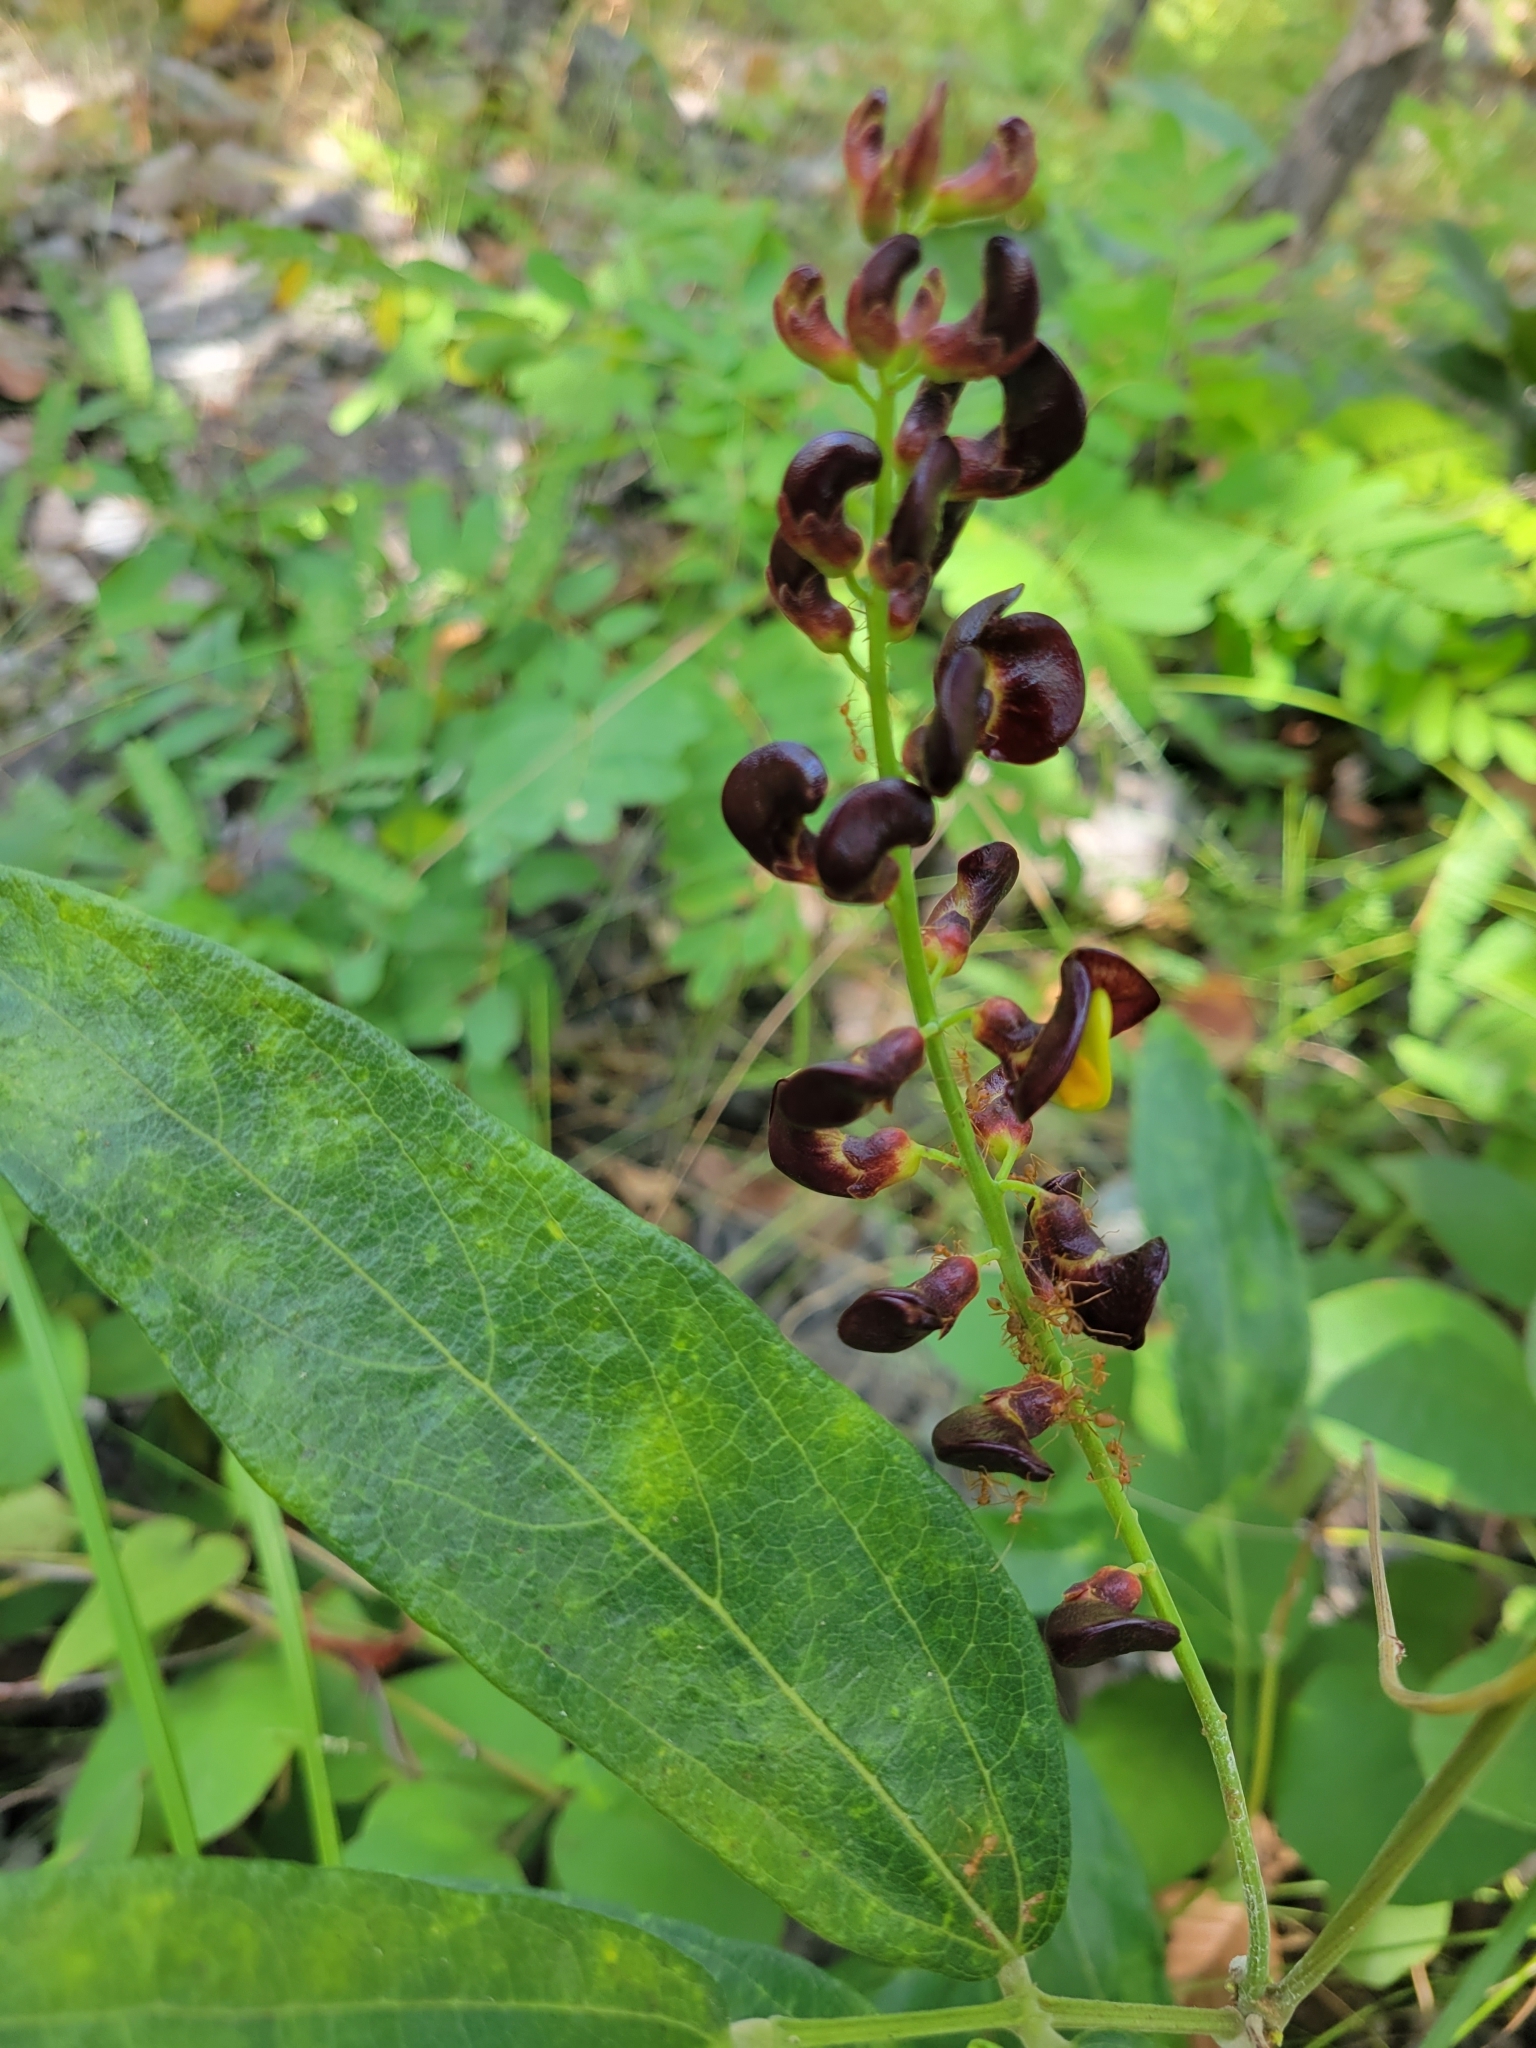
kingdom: Animalia
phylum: Arthropoda
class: Insecta
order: Hymenoptera
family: Formicidae
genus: Oecophylla
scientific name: Oecophylla smaragdina
